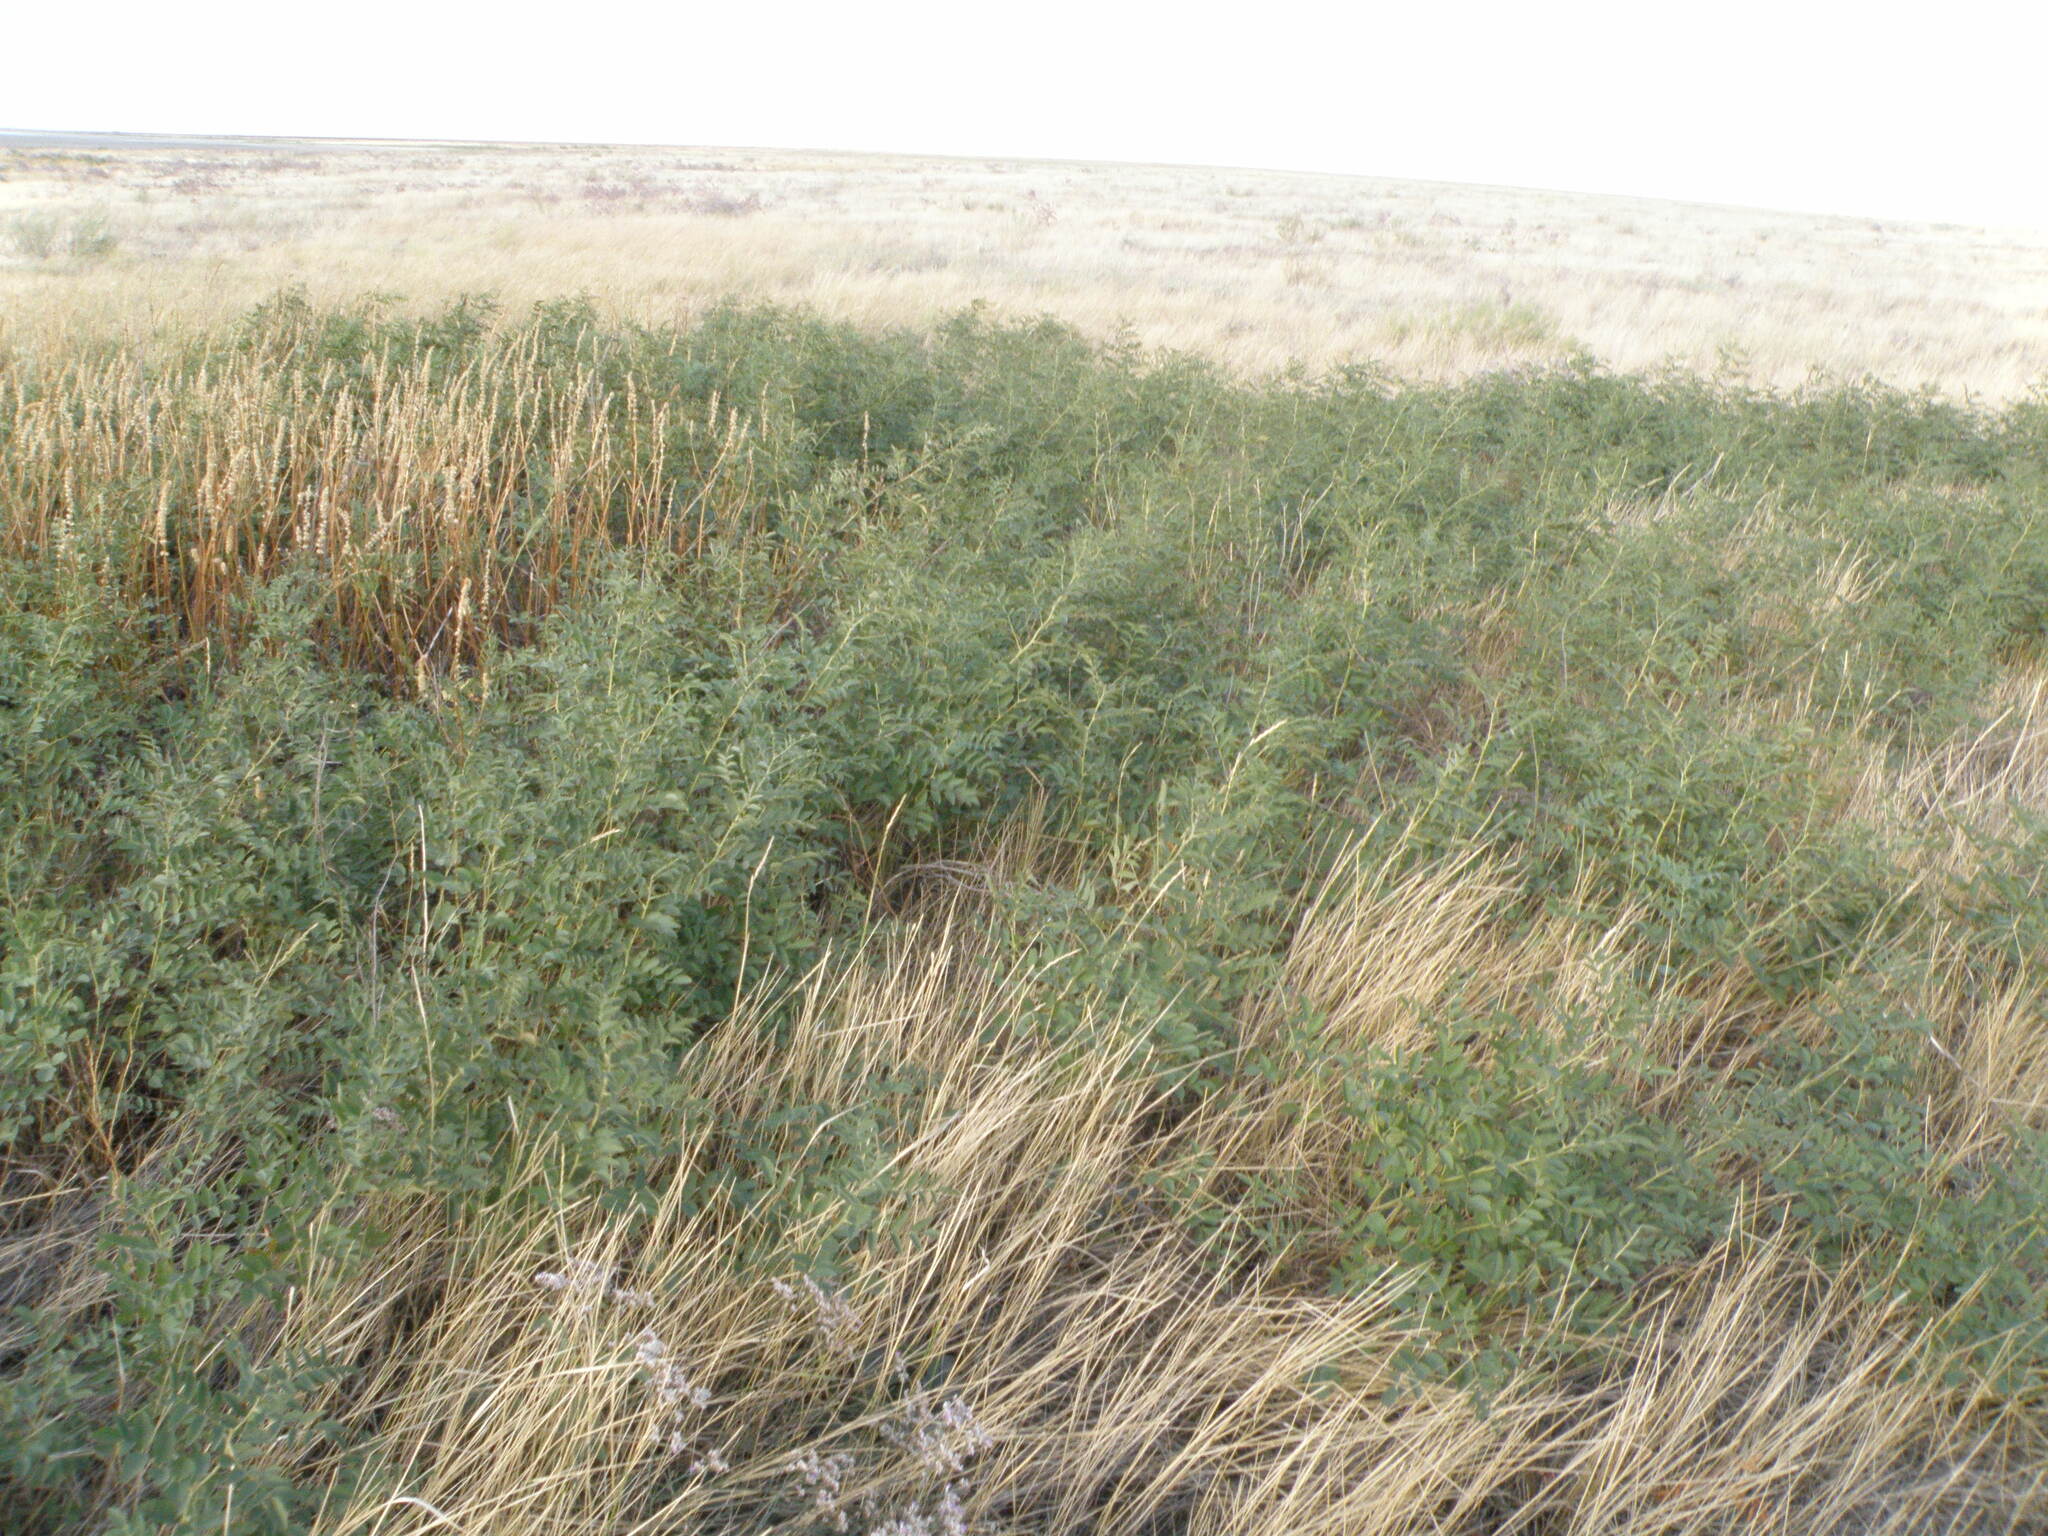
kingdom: Plantae
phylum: Tracheophyta
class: Magnoliopsida
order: Fabales
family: Fabaceae
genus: Glycyrrhiza
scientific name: Glycyrrhiza glabra
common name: Liquorice
